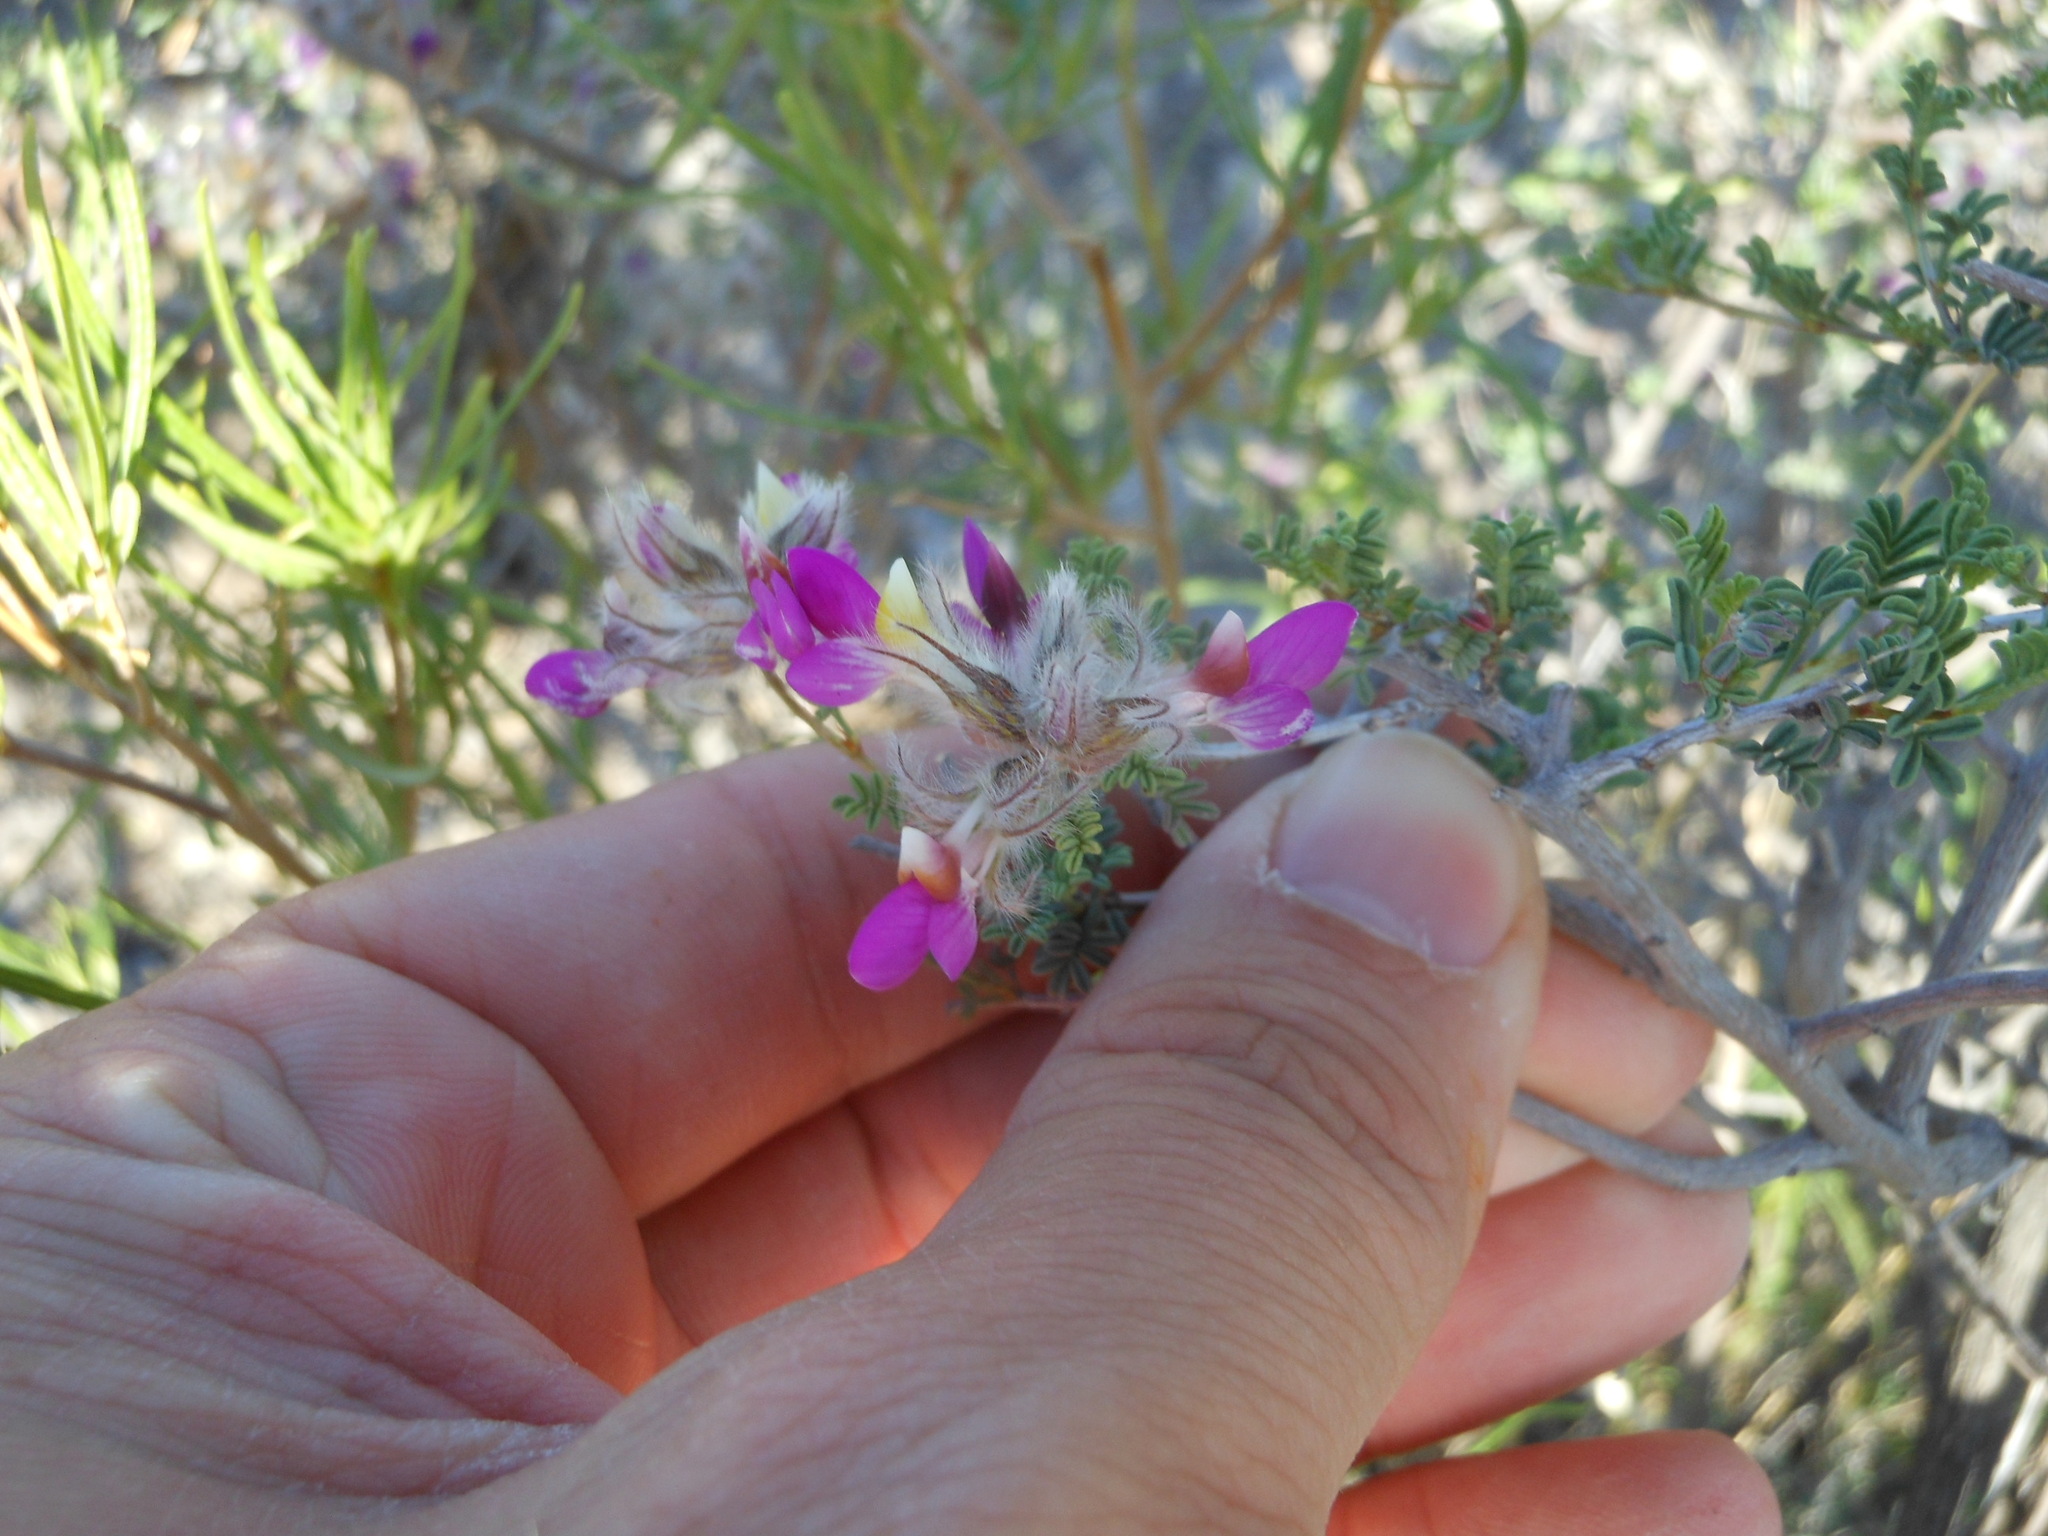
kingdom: Plantae
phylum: Tracheophyta
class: Magnoliopsida
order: Fabales
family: Fabaceae
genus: Dalea
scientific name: Dalea formosa
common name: Feather-plume dalea
